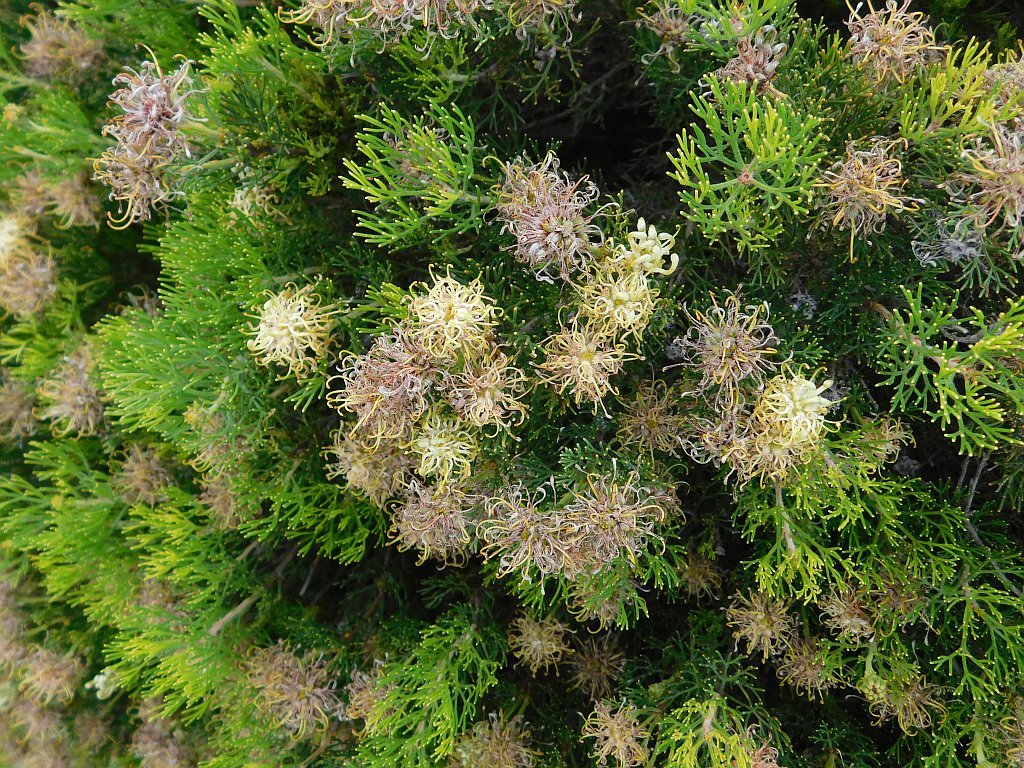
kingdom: Plantae
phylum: Tracheophyta
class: Magnoliopsida
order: Proteales
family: Proteaceae
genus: Serruria
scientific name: Serruria
